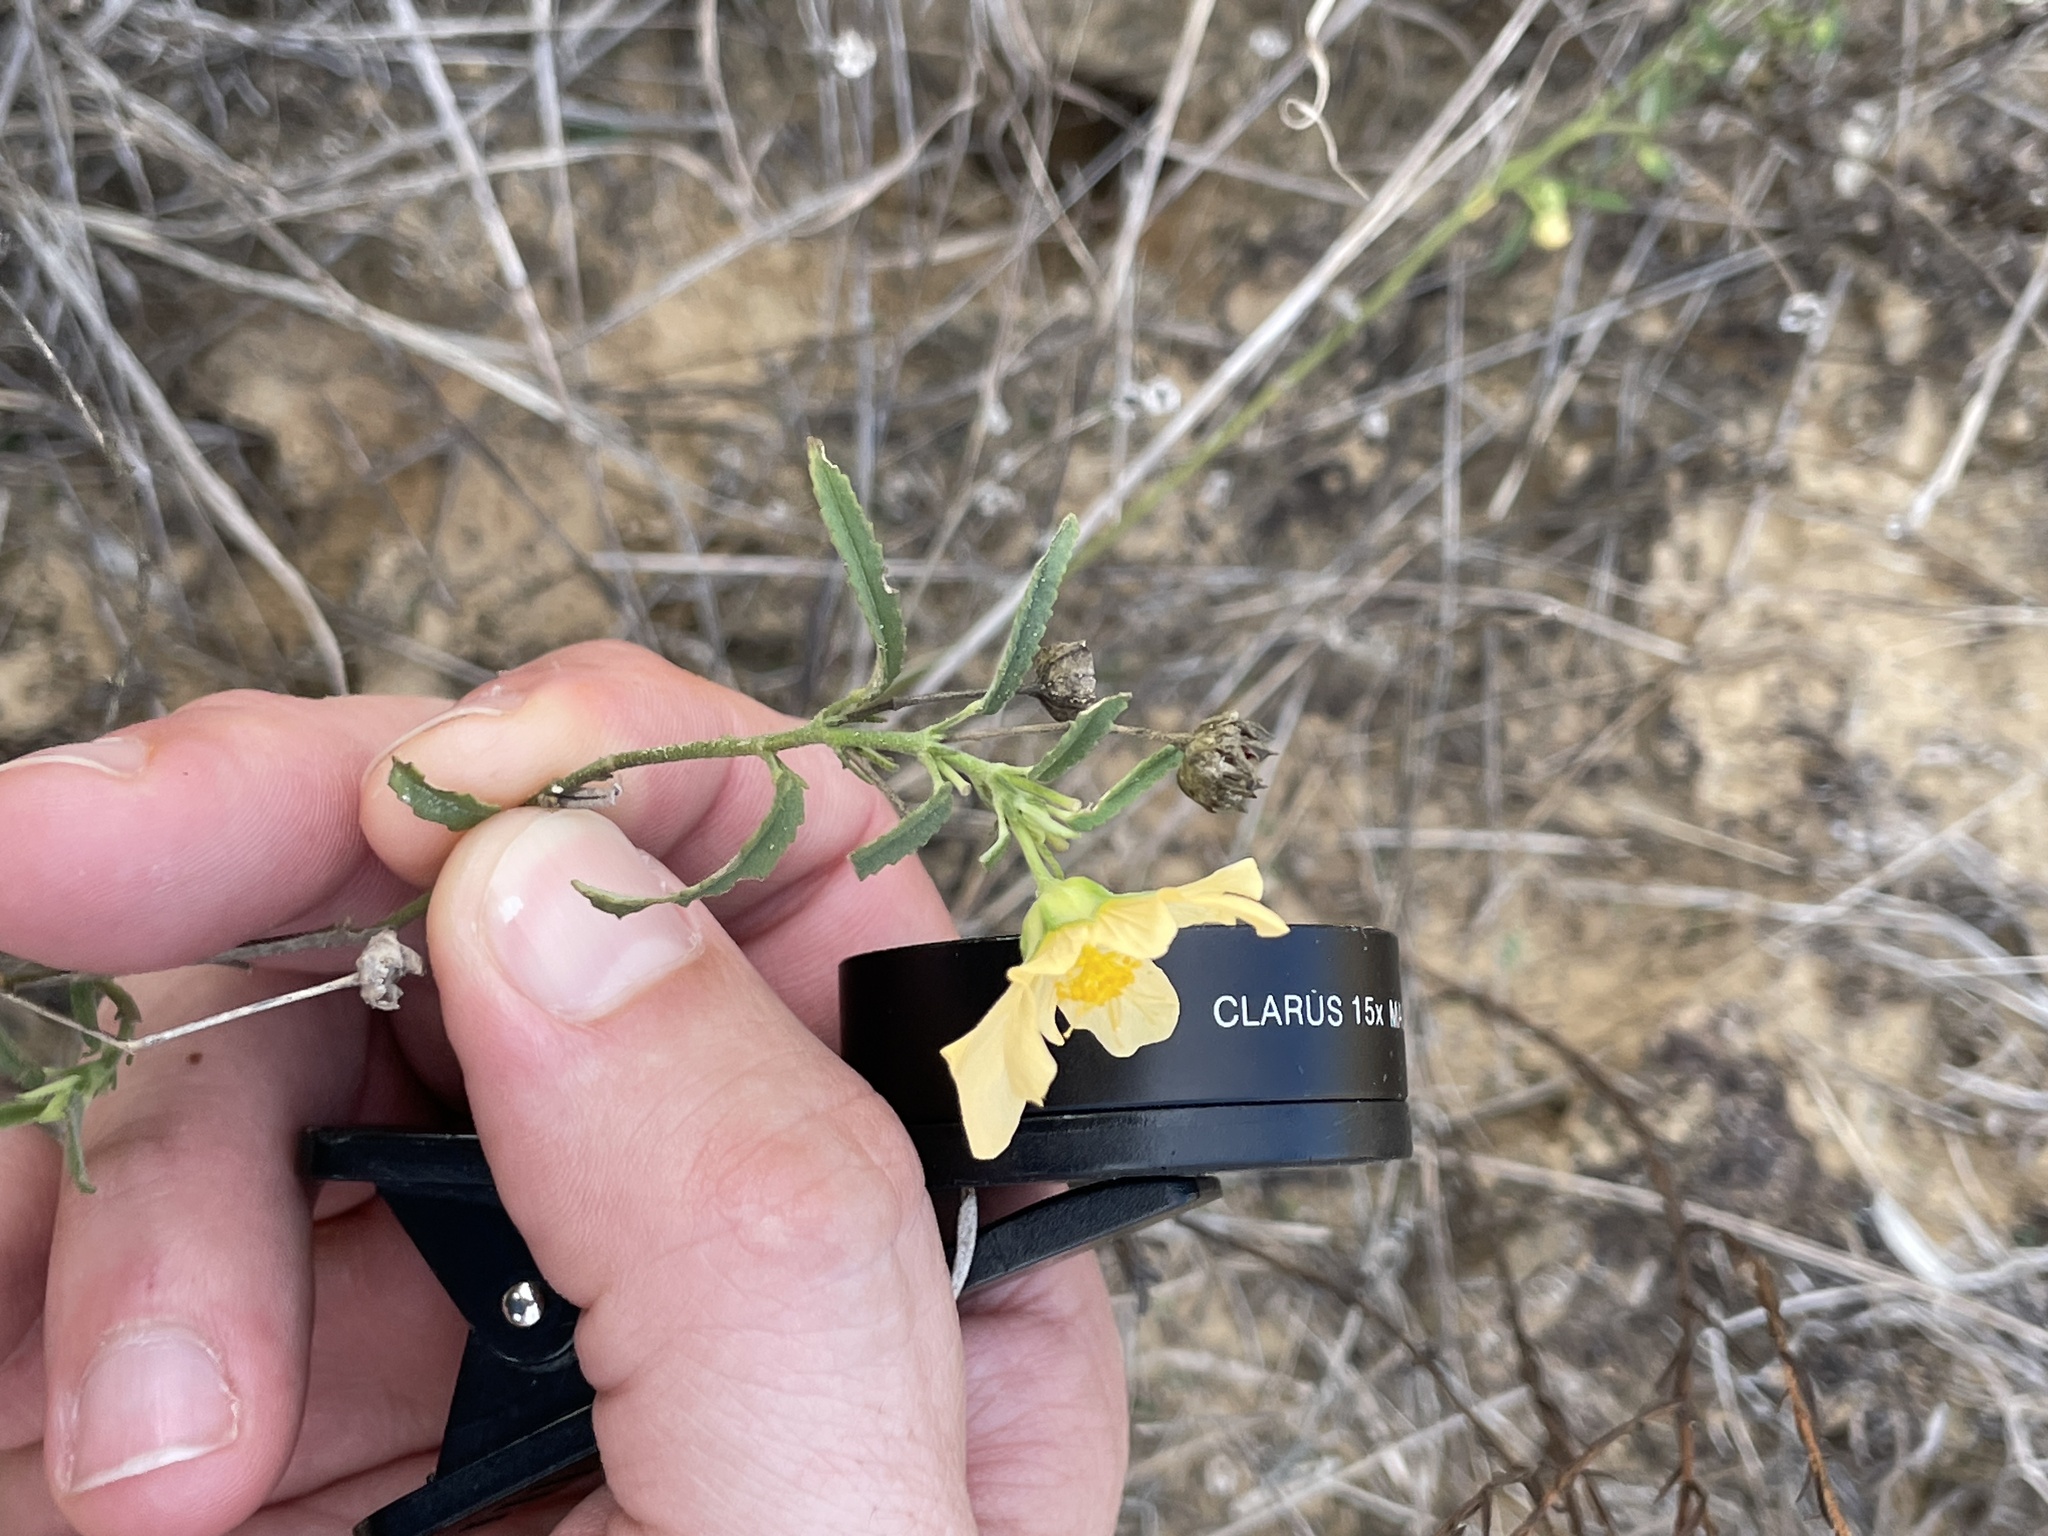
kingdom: Plantae
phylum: Tracheophyta
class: Magnoliopsida
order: Malvales
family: Malvaceae
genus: Sida
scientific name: Sida abutilifolia
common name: Spreading fanpetals
